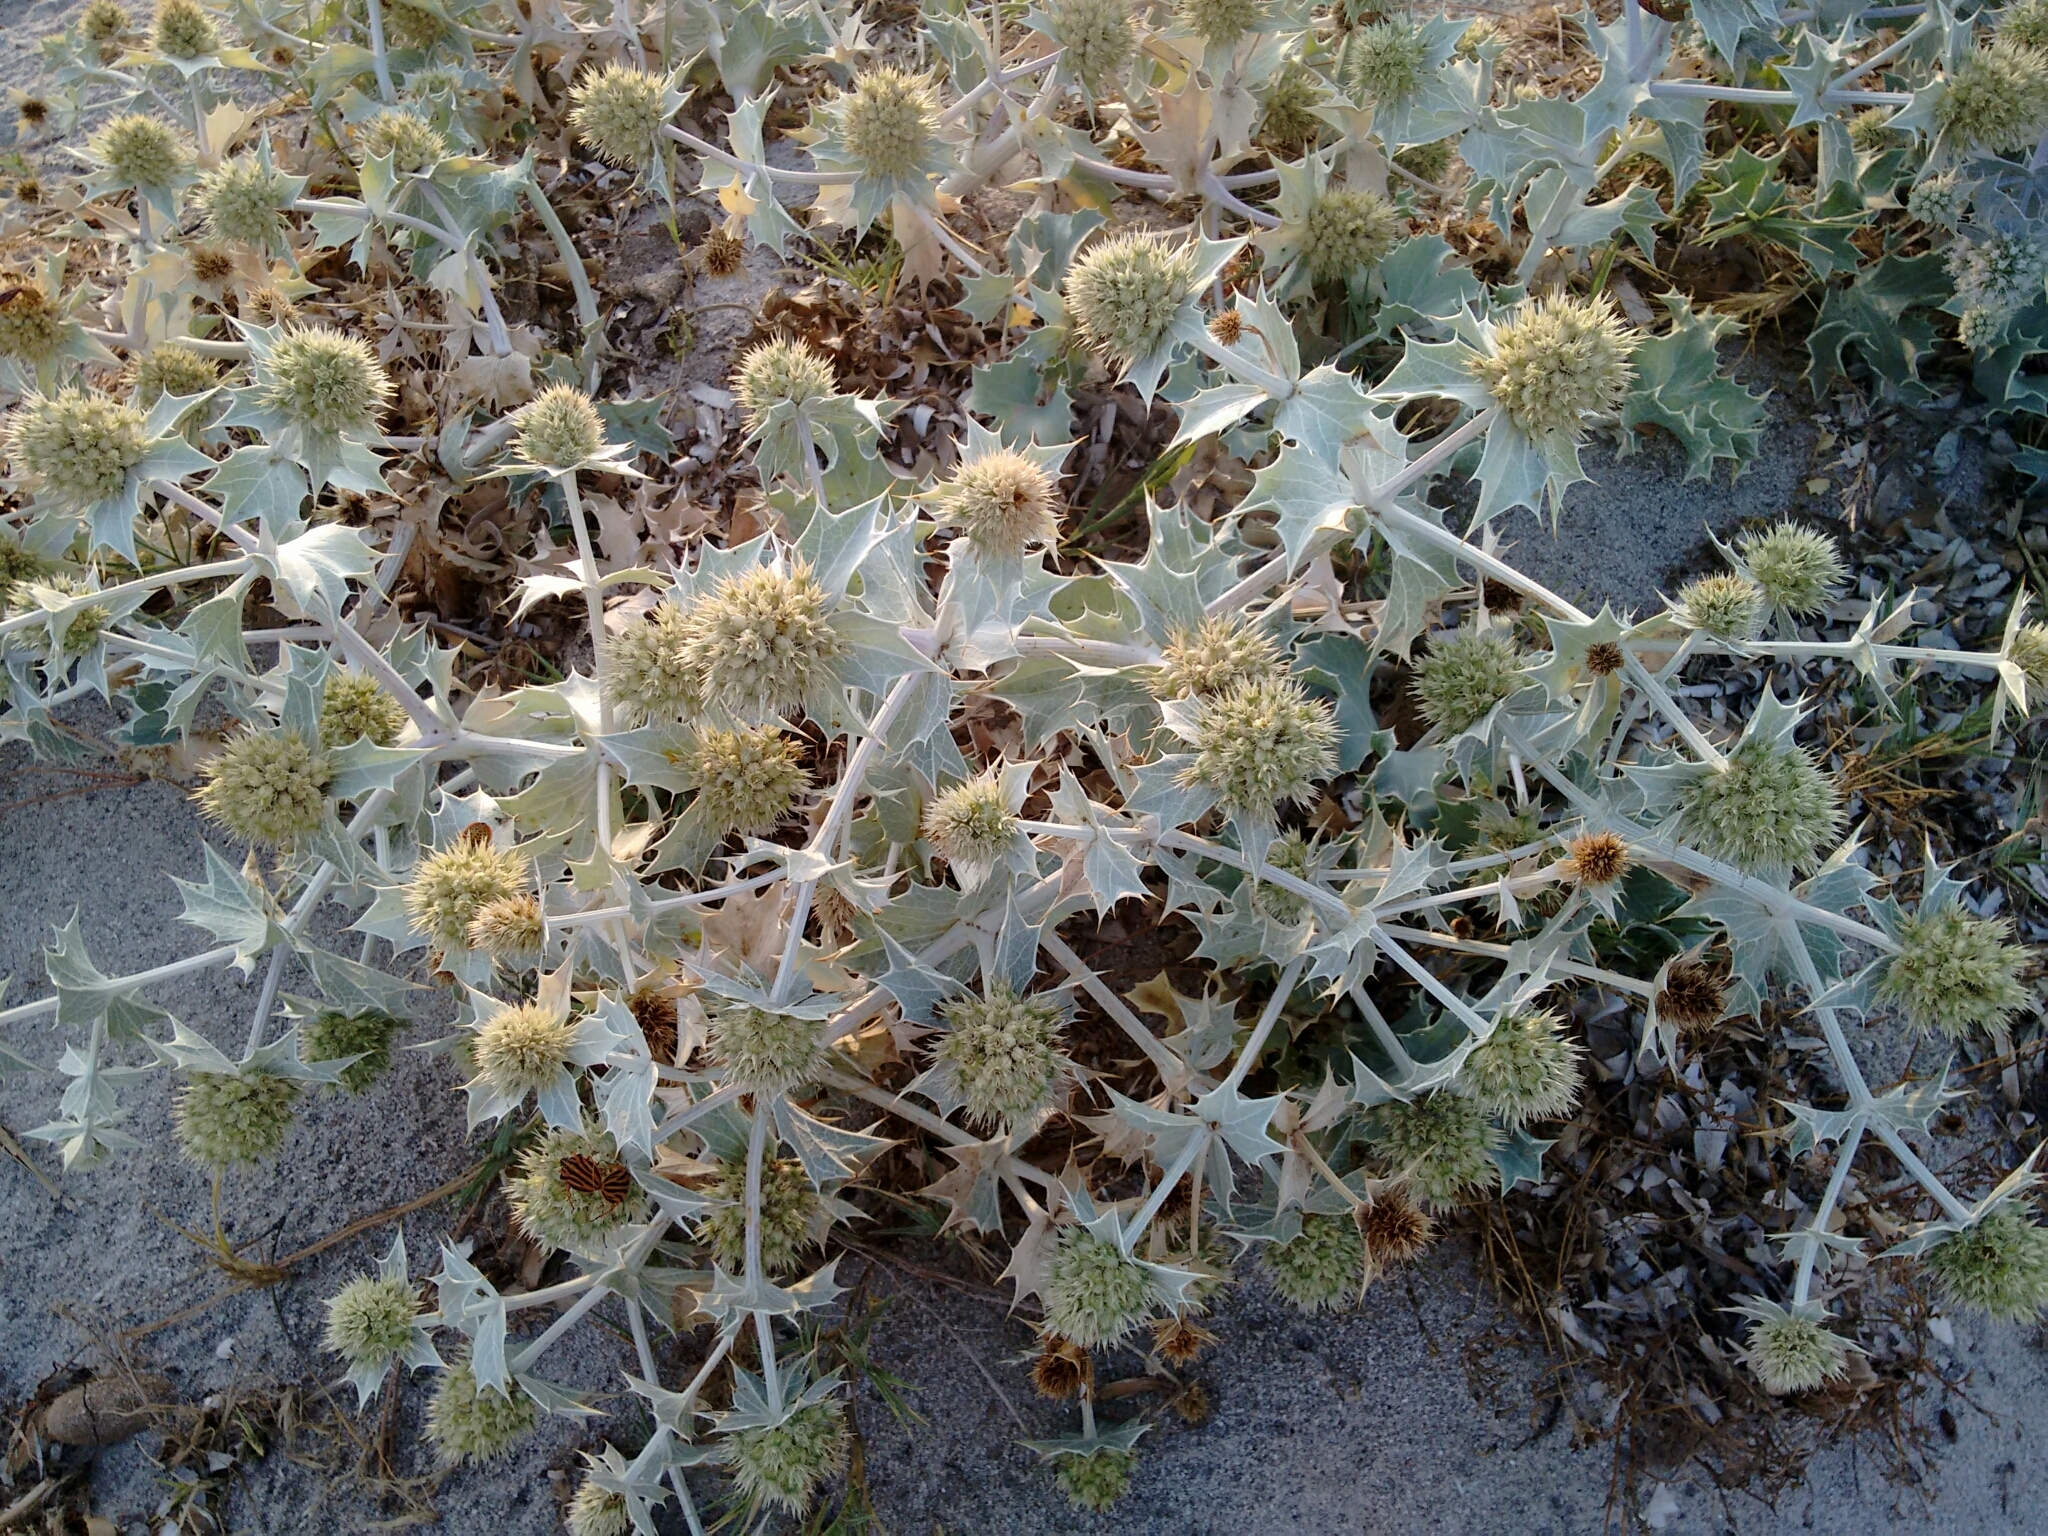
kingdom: Plantae
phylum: Tracheophyta
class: Magnoliopsida
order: Apiales
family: Apiaceae
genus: Eryngium
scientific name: Eryngium maritimum
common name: Sea-holly
